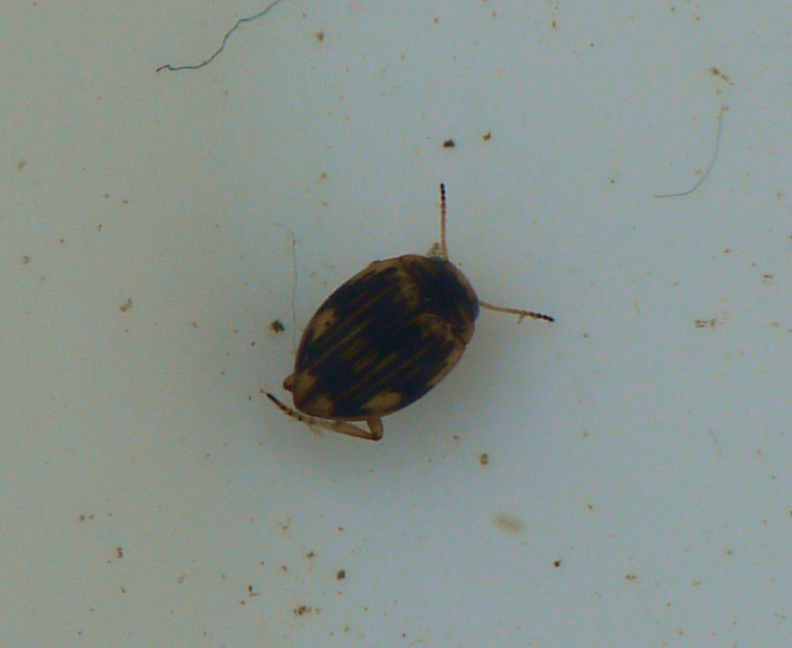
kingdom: Animalia
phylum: Arthropoda
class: Insecta
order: Coleoptera
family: Dytiscidae
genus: Nectoporus
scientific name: Nectoporus sanmarkii
